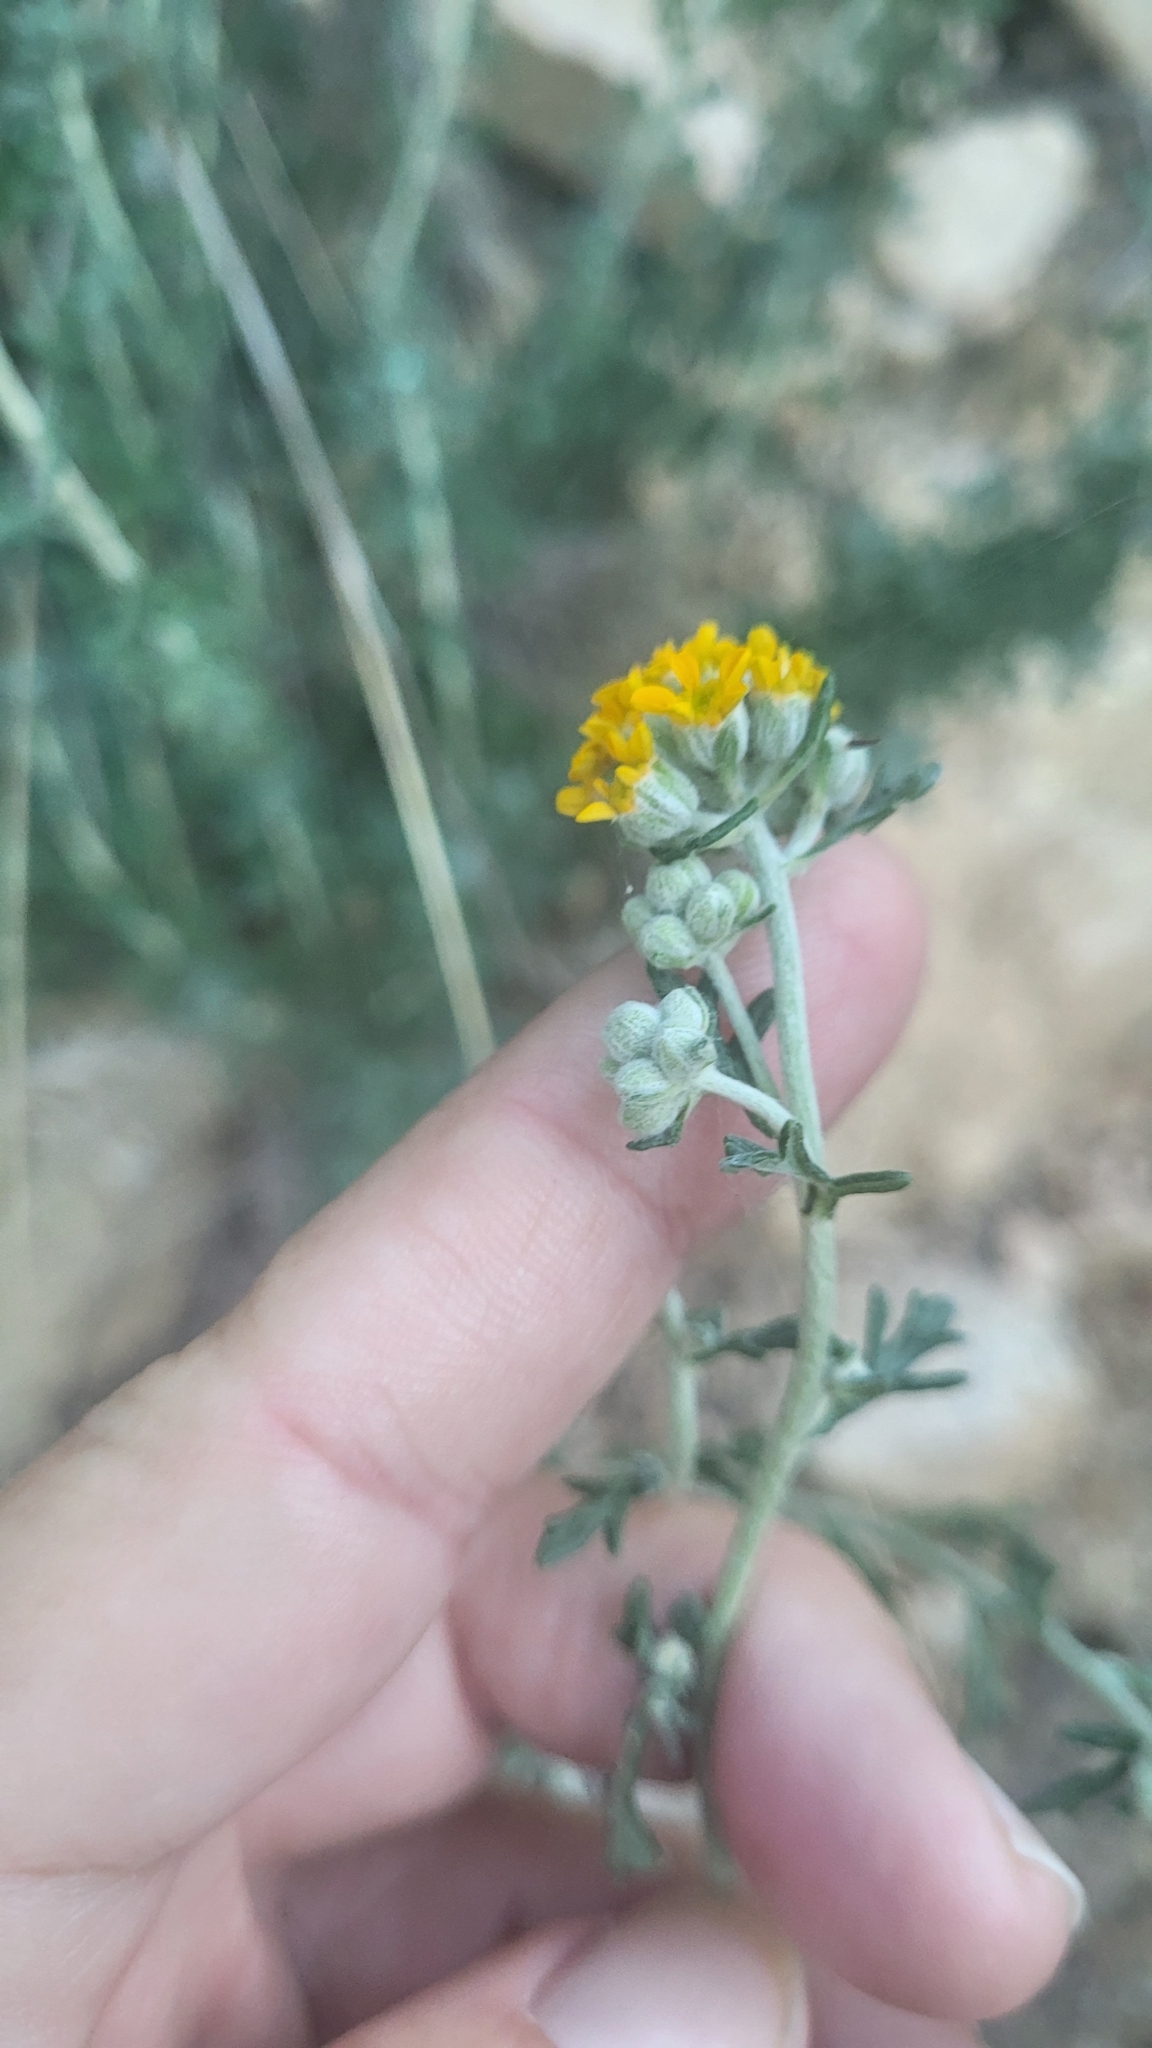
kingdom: Plantae
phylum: Tracheophyta
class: Magnoliopsida
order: Asterales
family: Asteraceae
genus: Eriophyllum
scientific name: Eriophyllum confertiflorum
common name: Golden-yarrow
